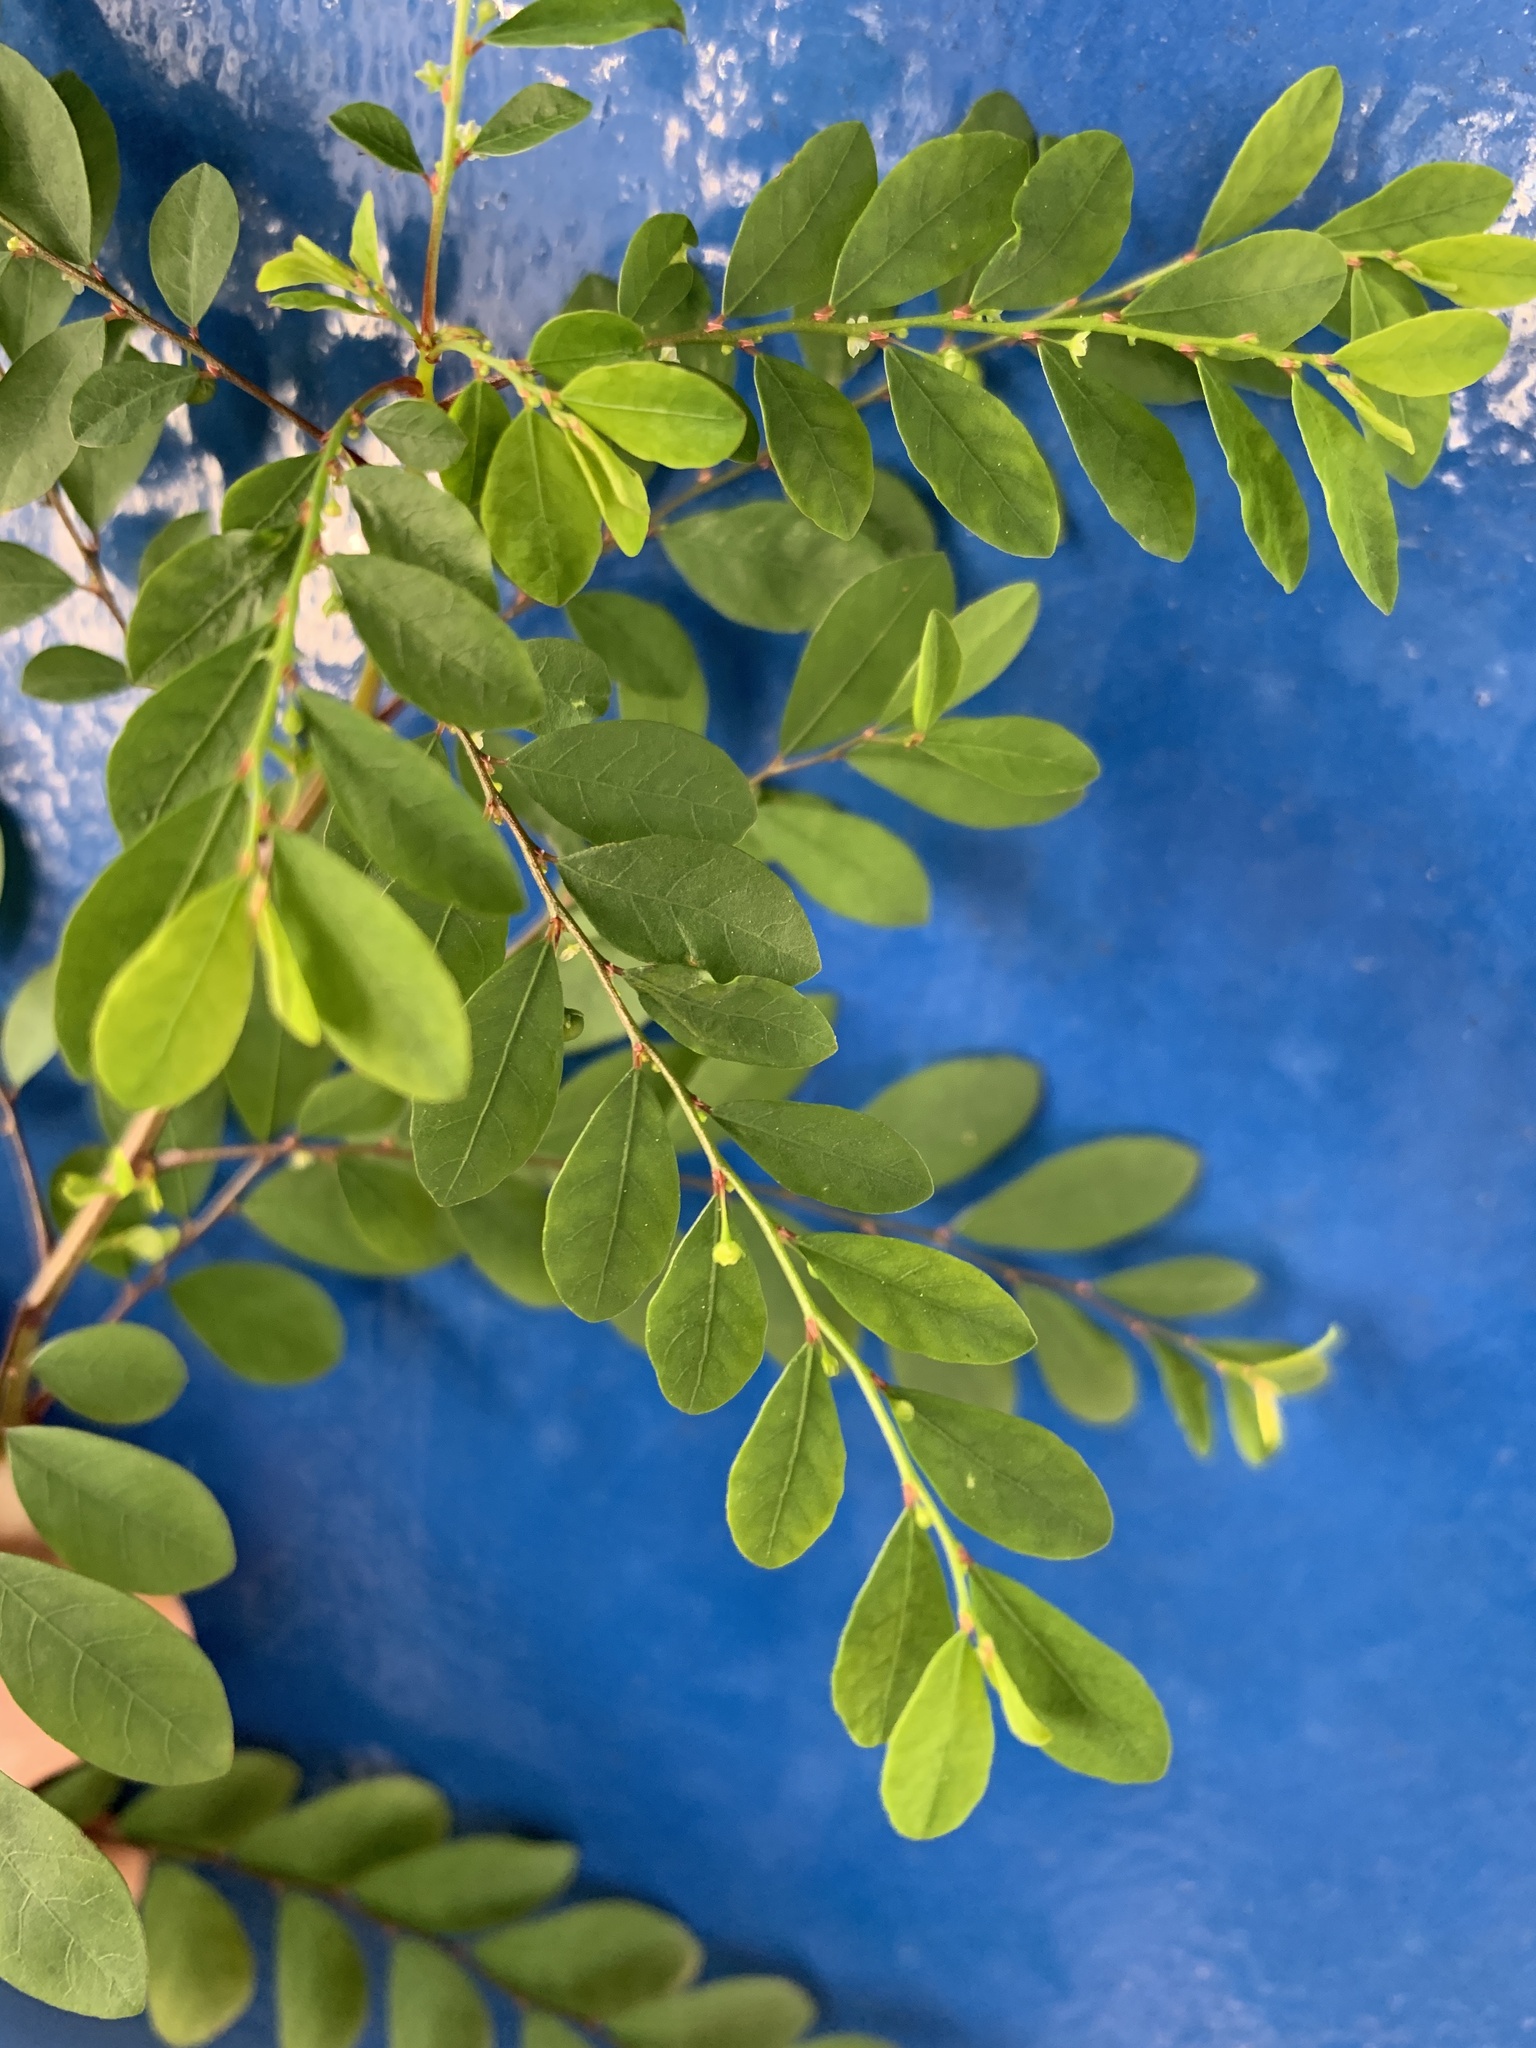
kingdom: Plantae
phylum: Tracheophyta
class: Magnoliopsida
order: Malpighiales
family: Phyllanthaceae
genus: Phyllanthus
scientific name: Phyllanthus tenellus
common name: Mascarene island leaf-flower
